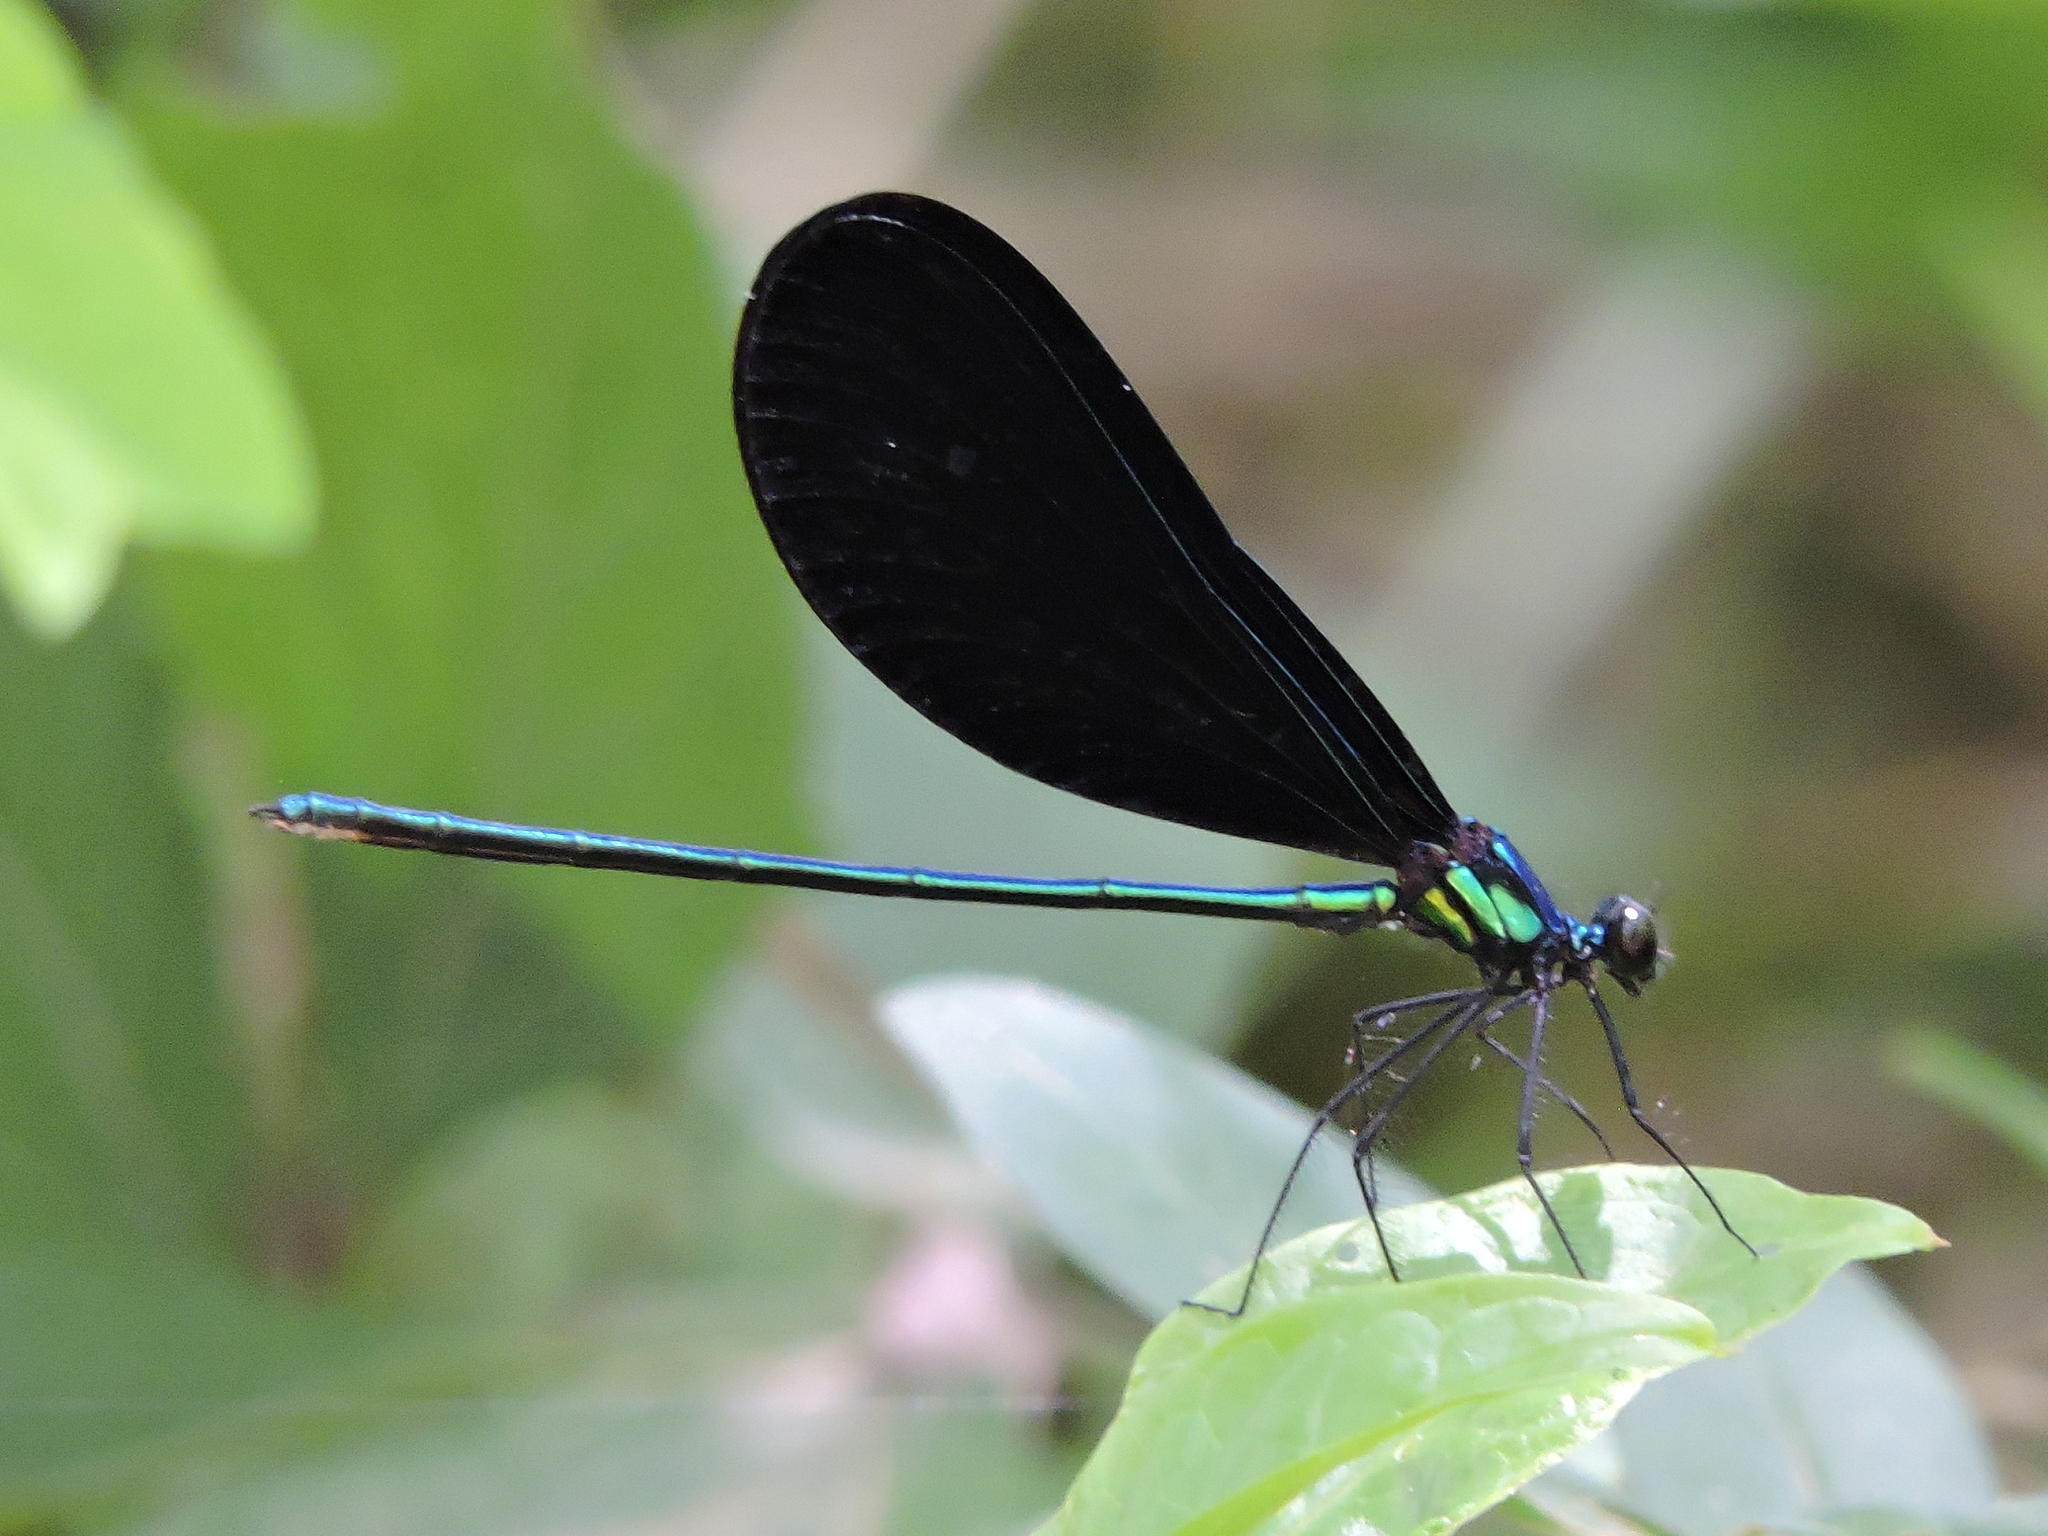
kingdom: Animalia
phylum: Arthropoda
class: Insecta
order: Odonata
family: Calopterygidae
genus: Calopteryx
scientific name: Calopteryx maculata
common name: Ebony jewelwing
